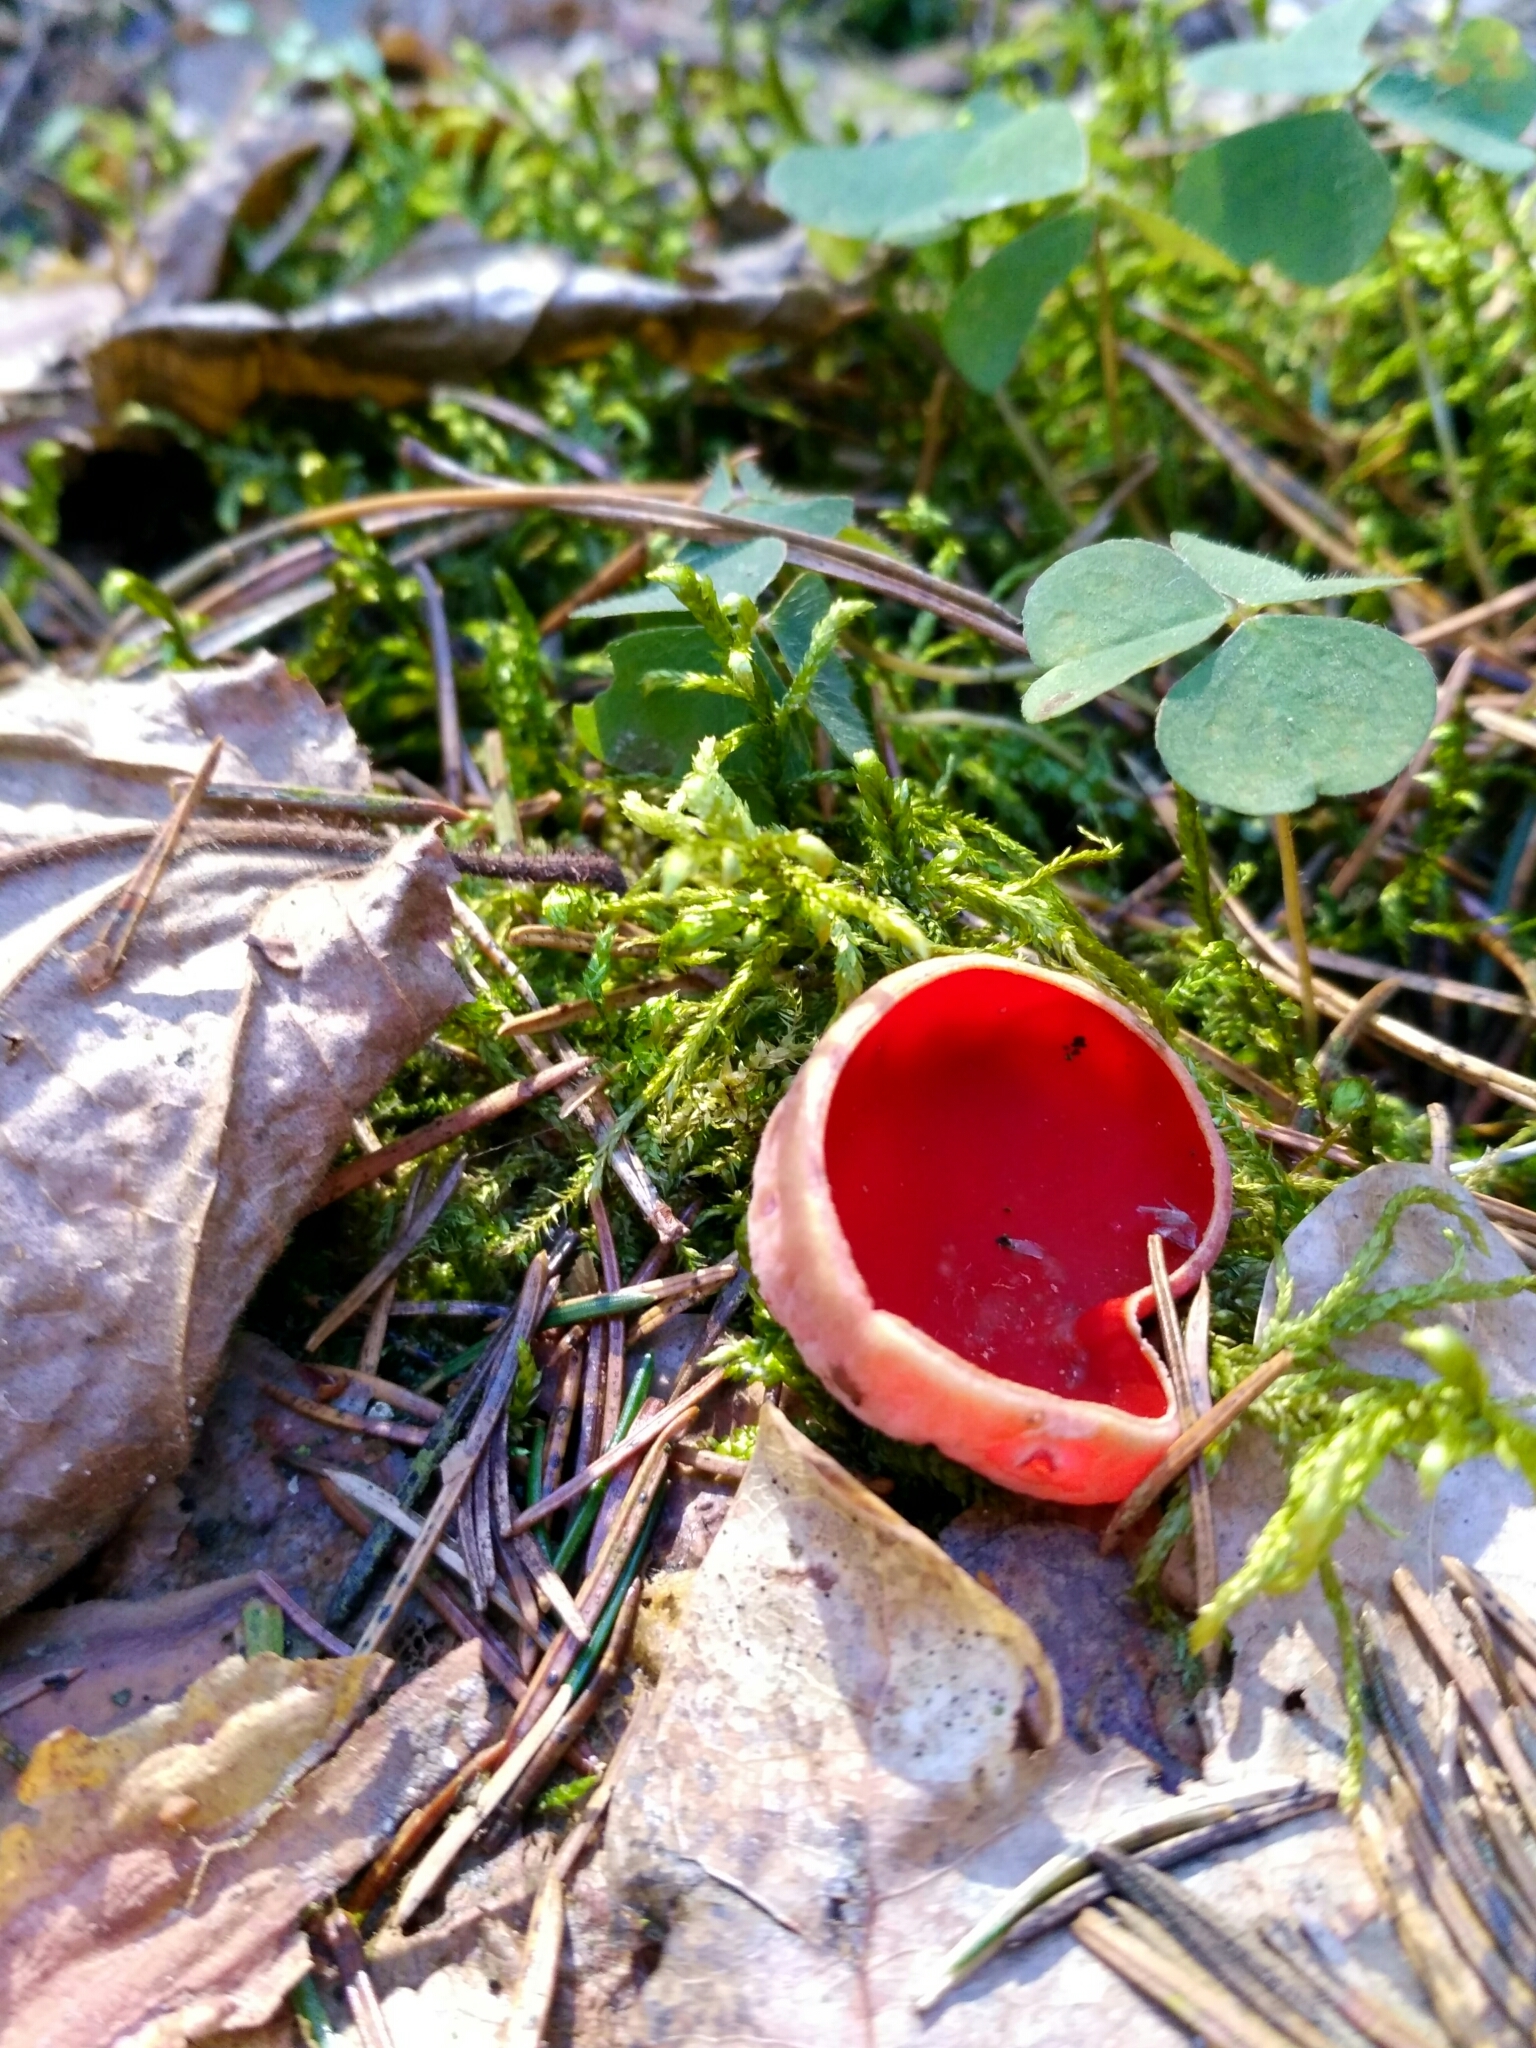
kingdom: Fungi
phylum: Ascomycota
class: Pezizomycetes
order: Pezizales
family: Sarcoscyphaceae
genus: Sarcoscypha
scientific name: Sarcoscypha
